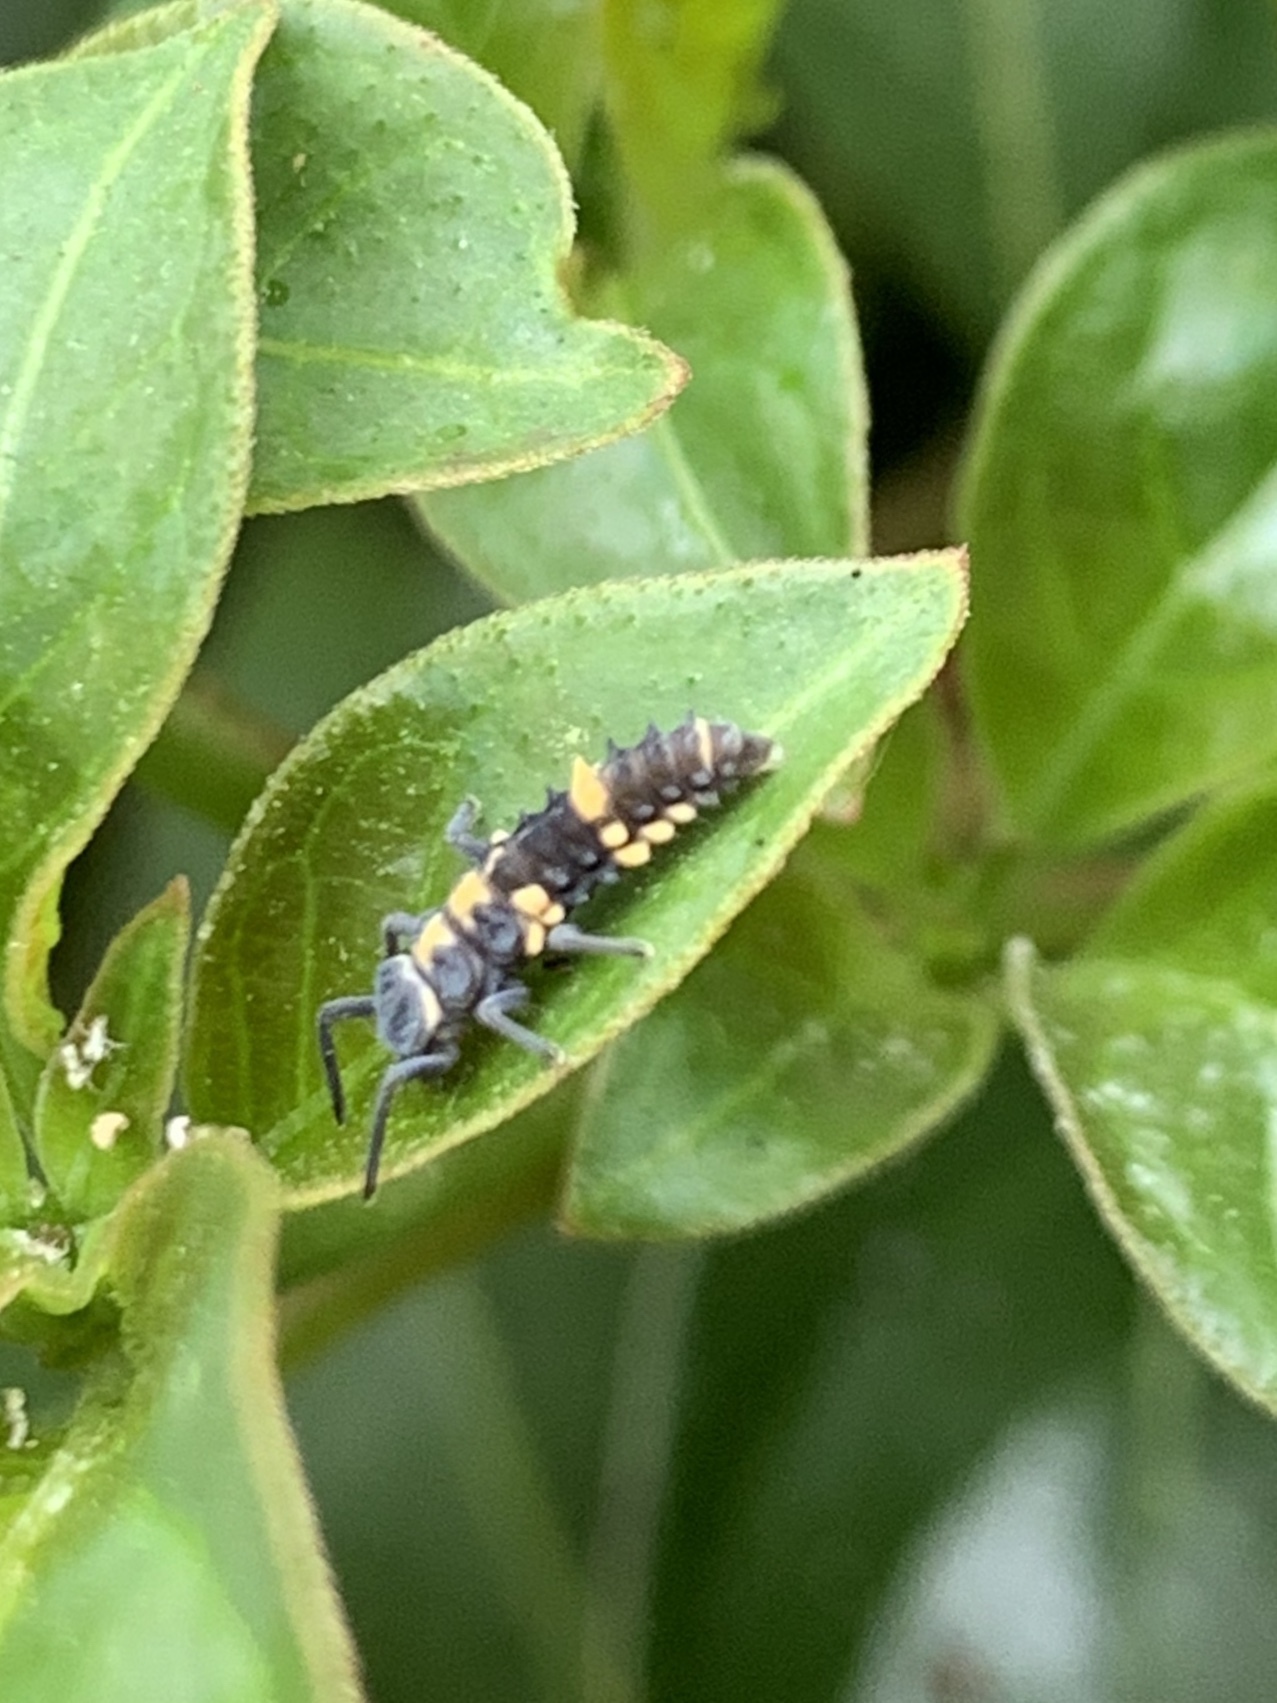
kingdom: Animalia
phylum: Arthropoda
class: Insecta
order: Coleoptera
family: Coccinellidae
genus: Coelophora
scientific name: Coelophora inaequalis
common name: Common australian lady beetle
